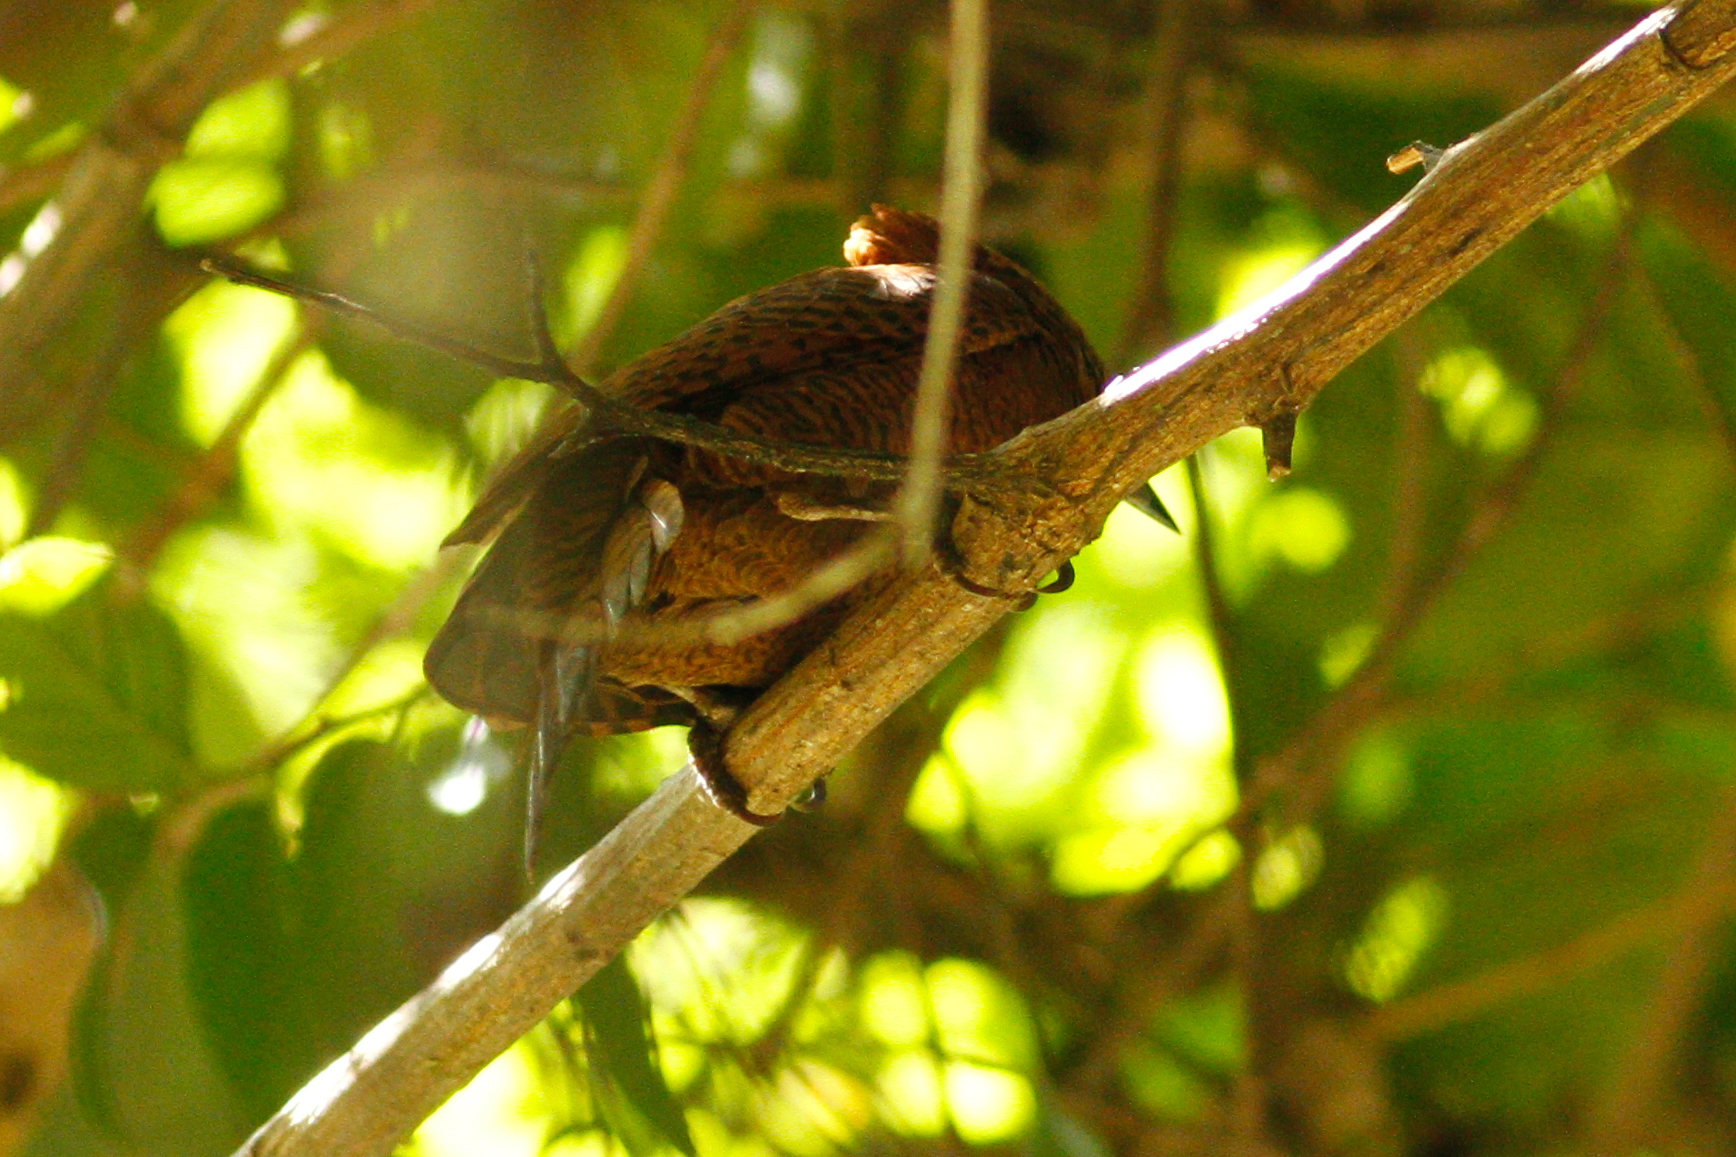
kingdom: Animalia
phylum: Chordata
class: Aves
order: Piciformes
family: Picidae
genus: Micropternus
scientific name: Micropternus brachyurus
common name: Rufous woodpecker
